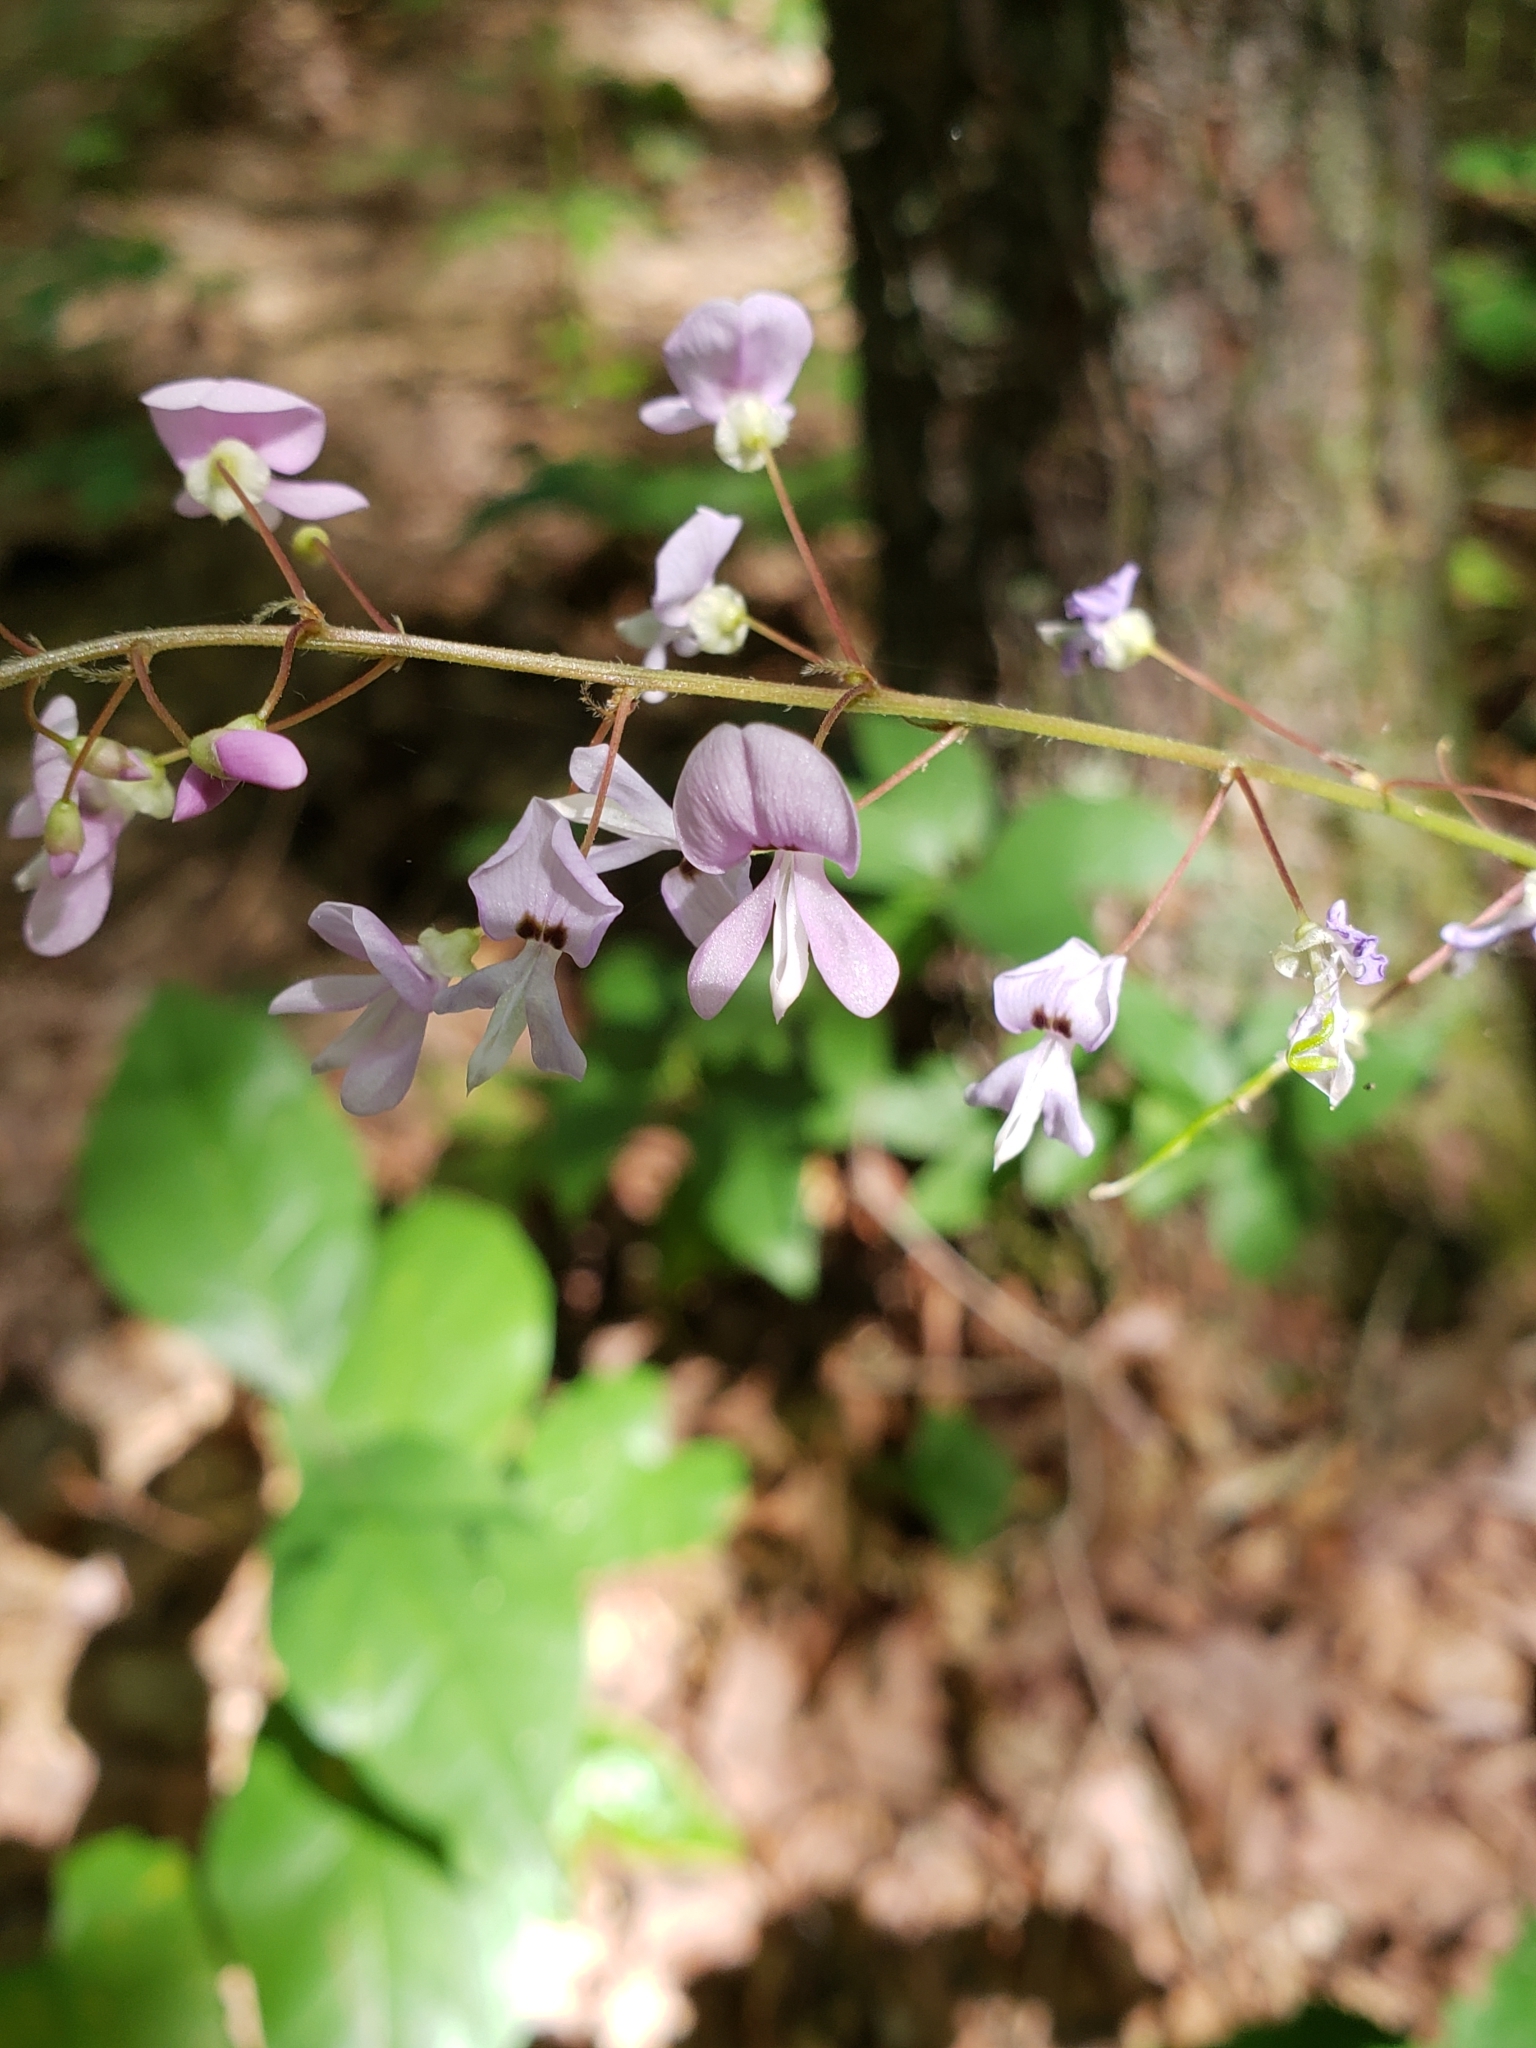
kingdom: Plantae
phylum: Tracheophyta
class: Magnoliopsida
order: Fabales
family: Fabaceae
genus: Hylodesmum
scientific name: Hylodesmum nudiflorum
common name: Bare-stemmed tick-trefoil
